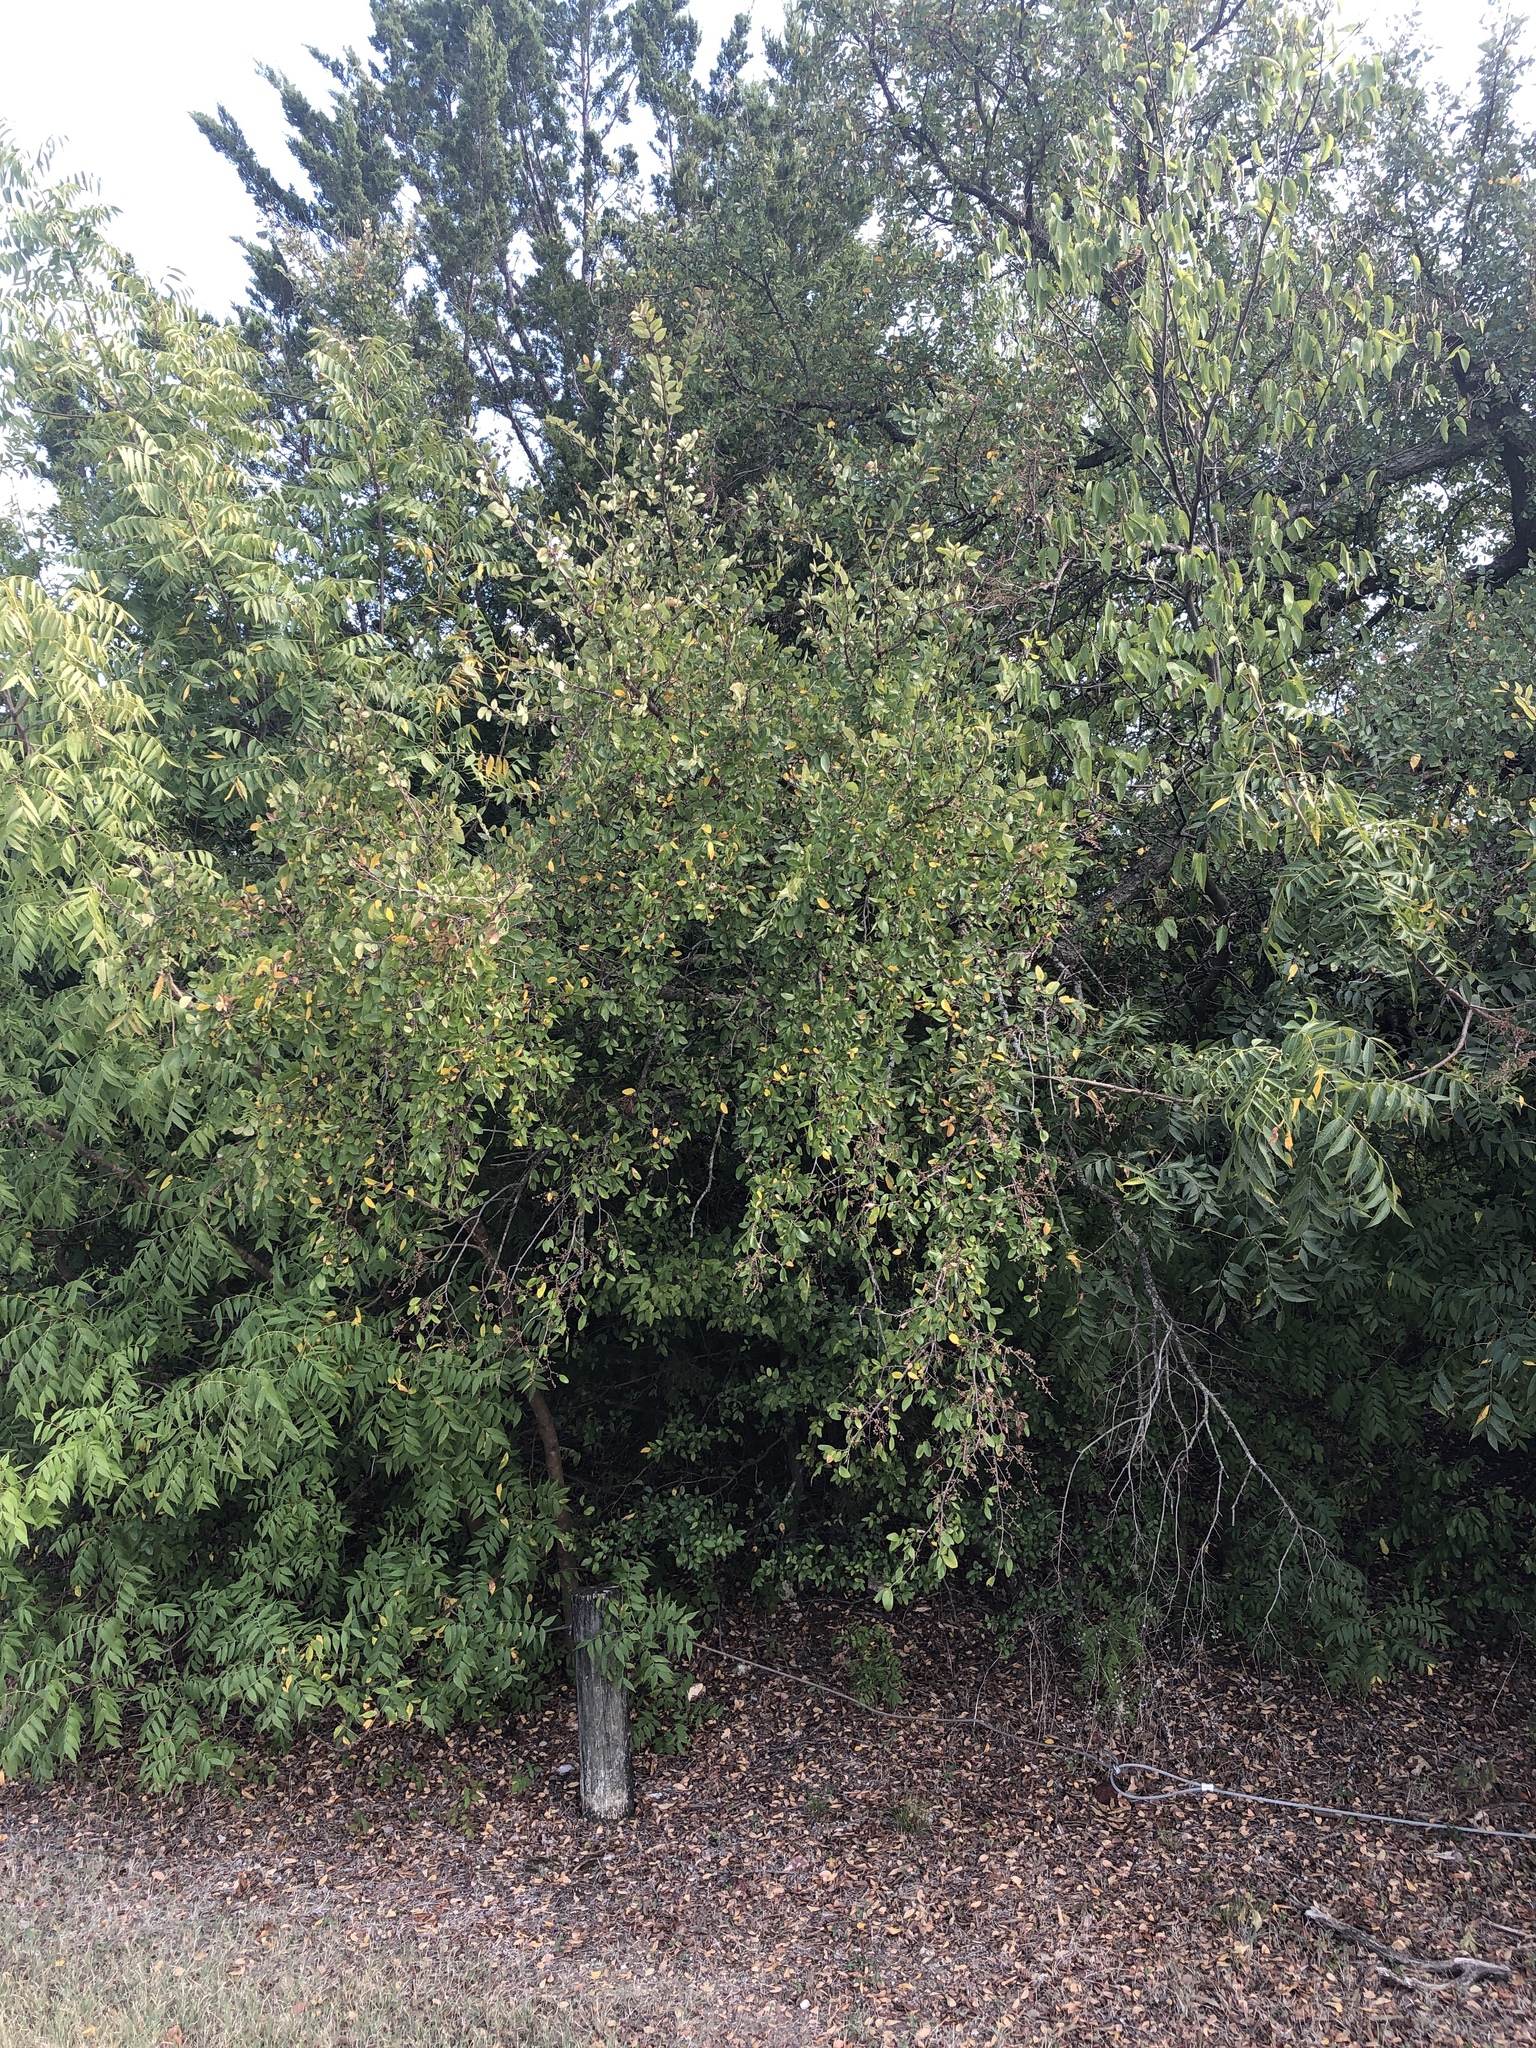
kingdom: Plantae
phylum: Tracheophyta
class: Magnoliopsida
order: Rosales
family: Ulmaceae
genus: Ulmus
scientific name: Ulmus crassifolia
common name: Basket elm
